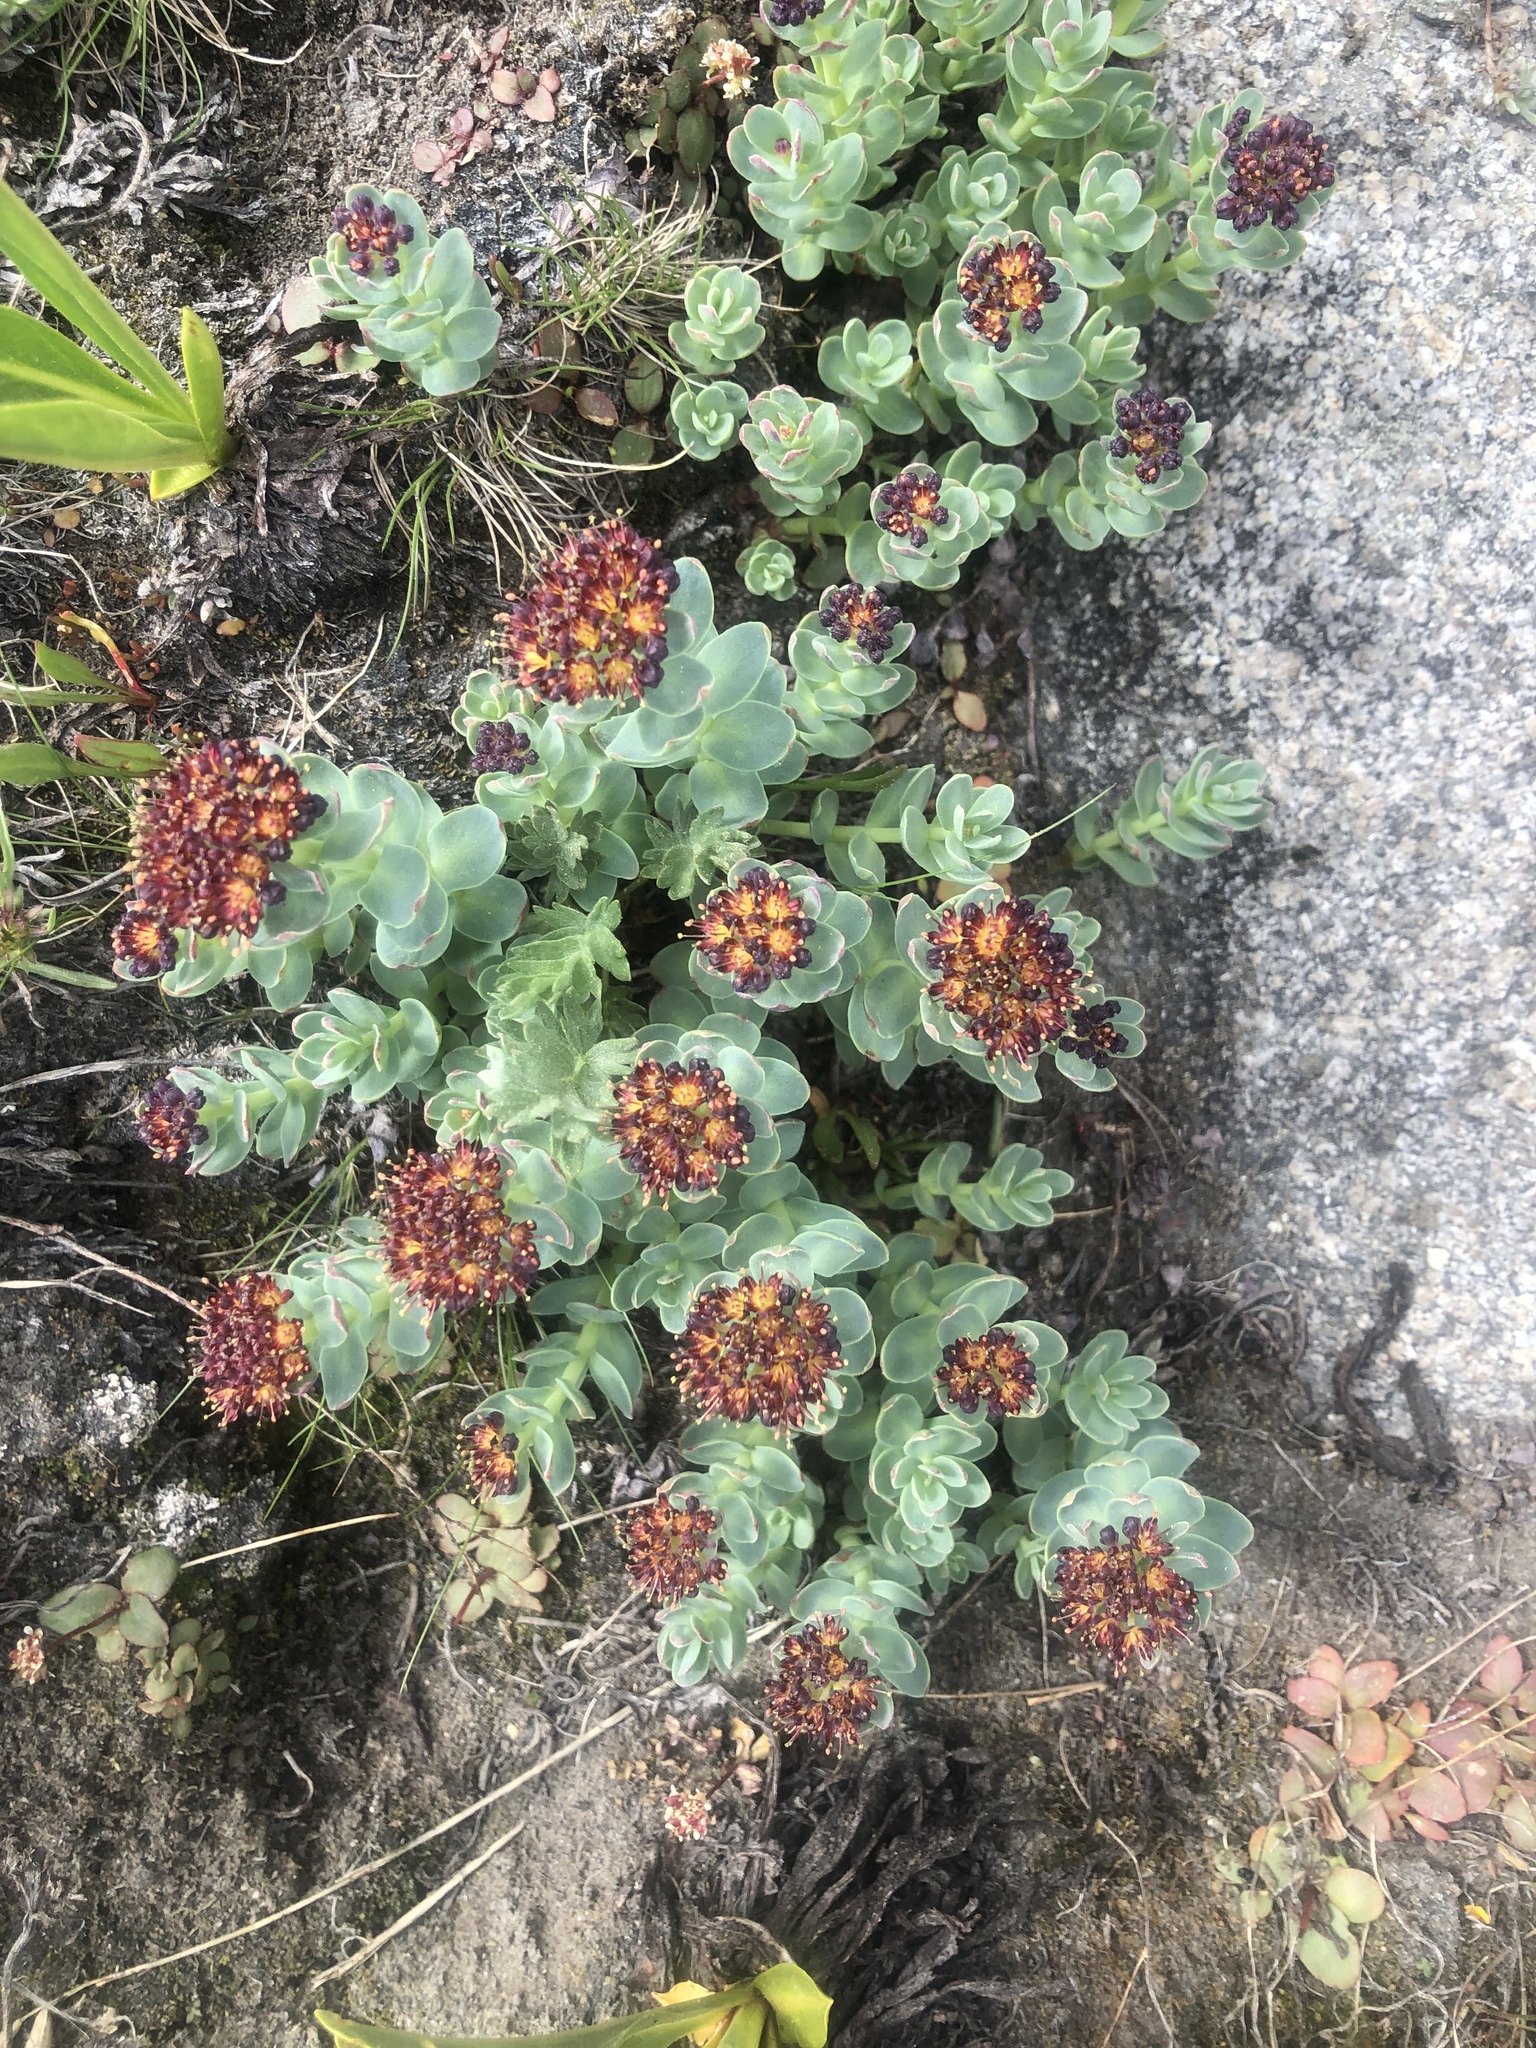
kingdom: Plantae
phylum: Tracheophyta
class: Magnoliopsida
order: Saxifragales
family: Crassulaceae
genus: Rhodiola
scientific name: Rhodiola integrifolia
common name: Western roseroot
